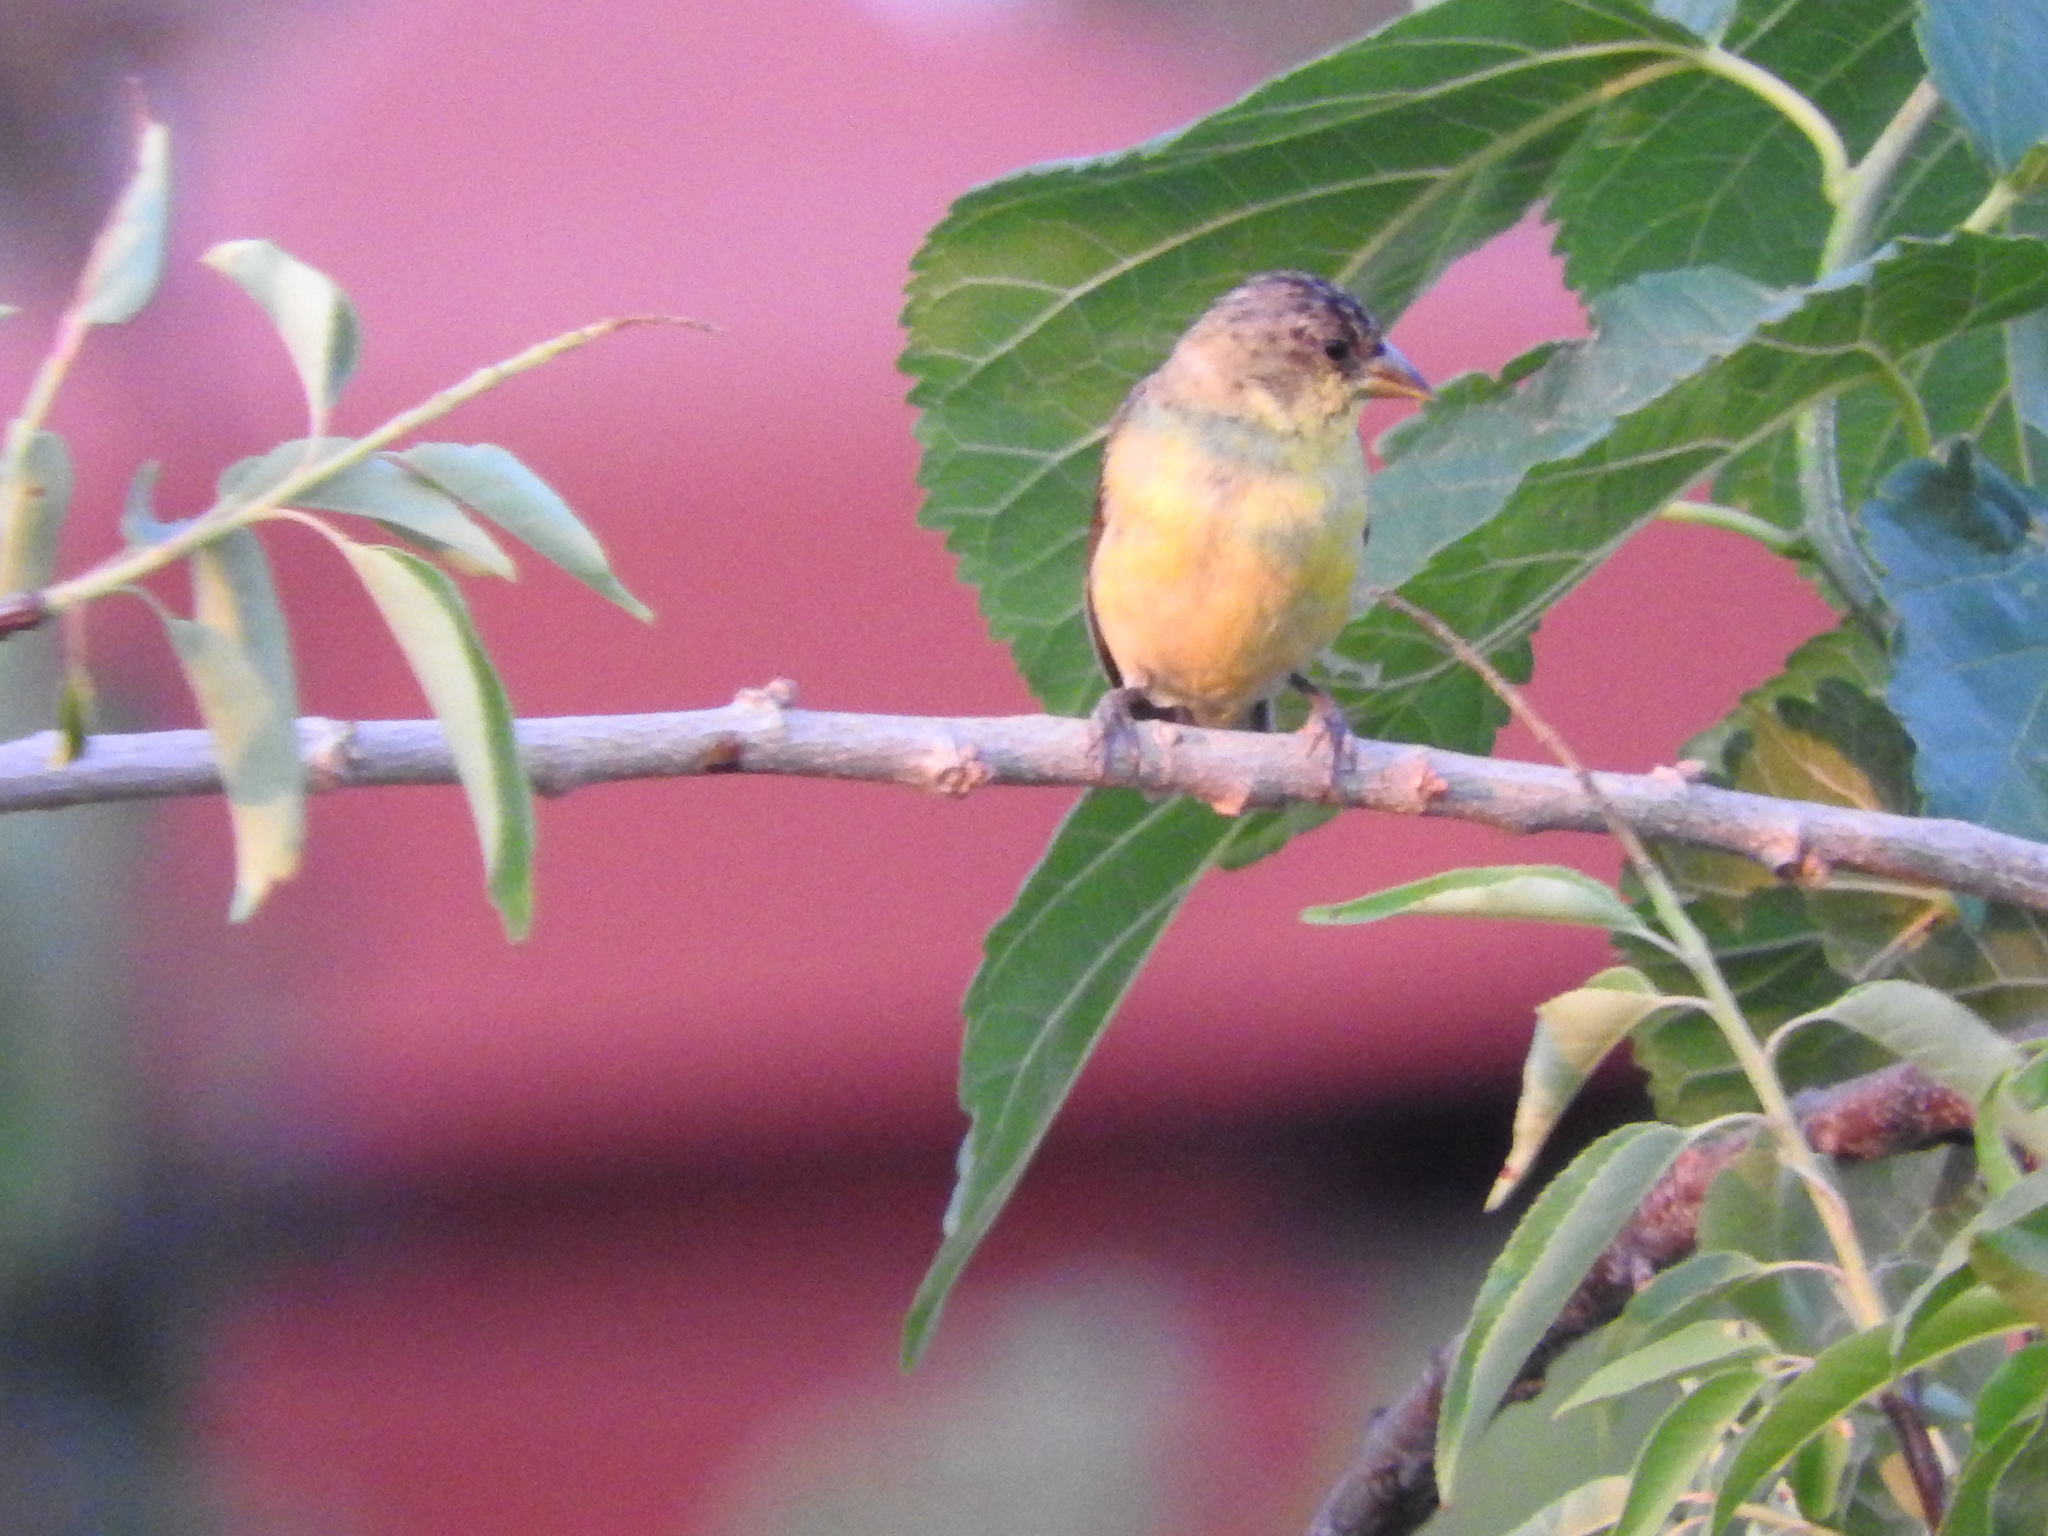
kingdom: Animalia
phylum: Chordata
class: Aves
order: Passeriformes
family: Fringillidae
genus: Spinus
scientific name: Spinus psaltria
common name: Lesser goldfinch
